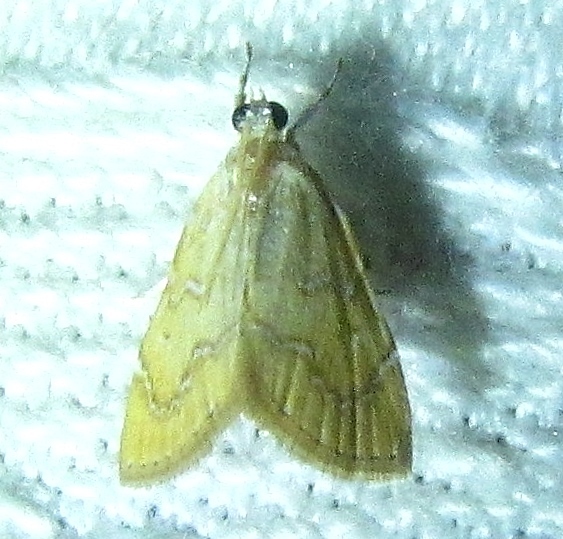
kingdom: Animalia
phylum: Arthropoda
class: Insecta
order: Lepidoptera
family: Crambidae
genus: Glaphyria
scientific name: Glaphyria sesquistrialis
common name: White-roped glaphyria
